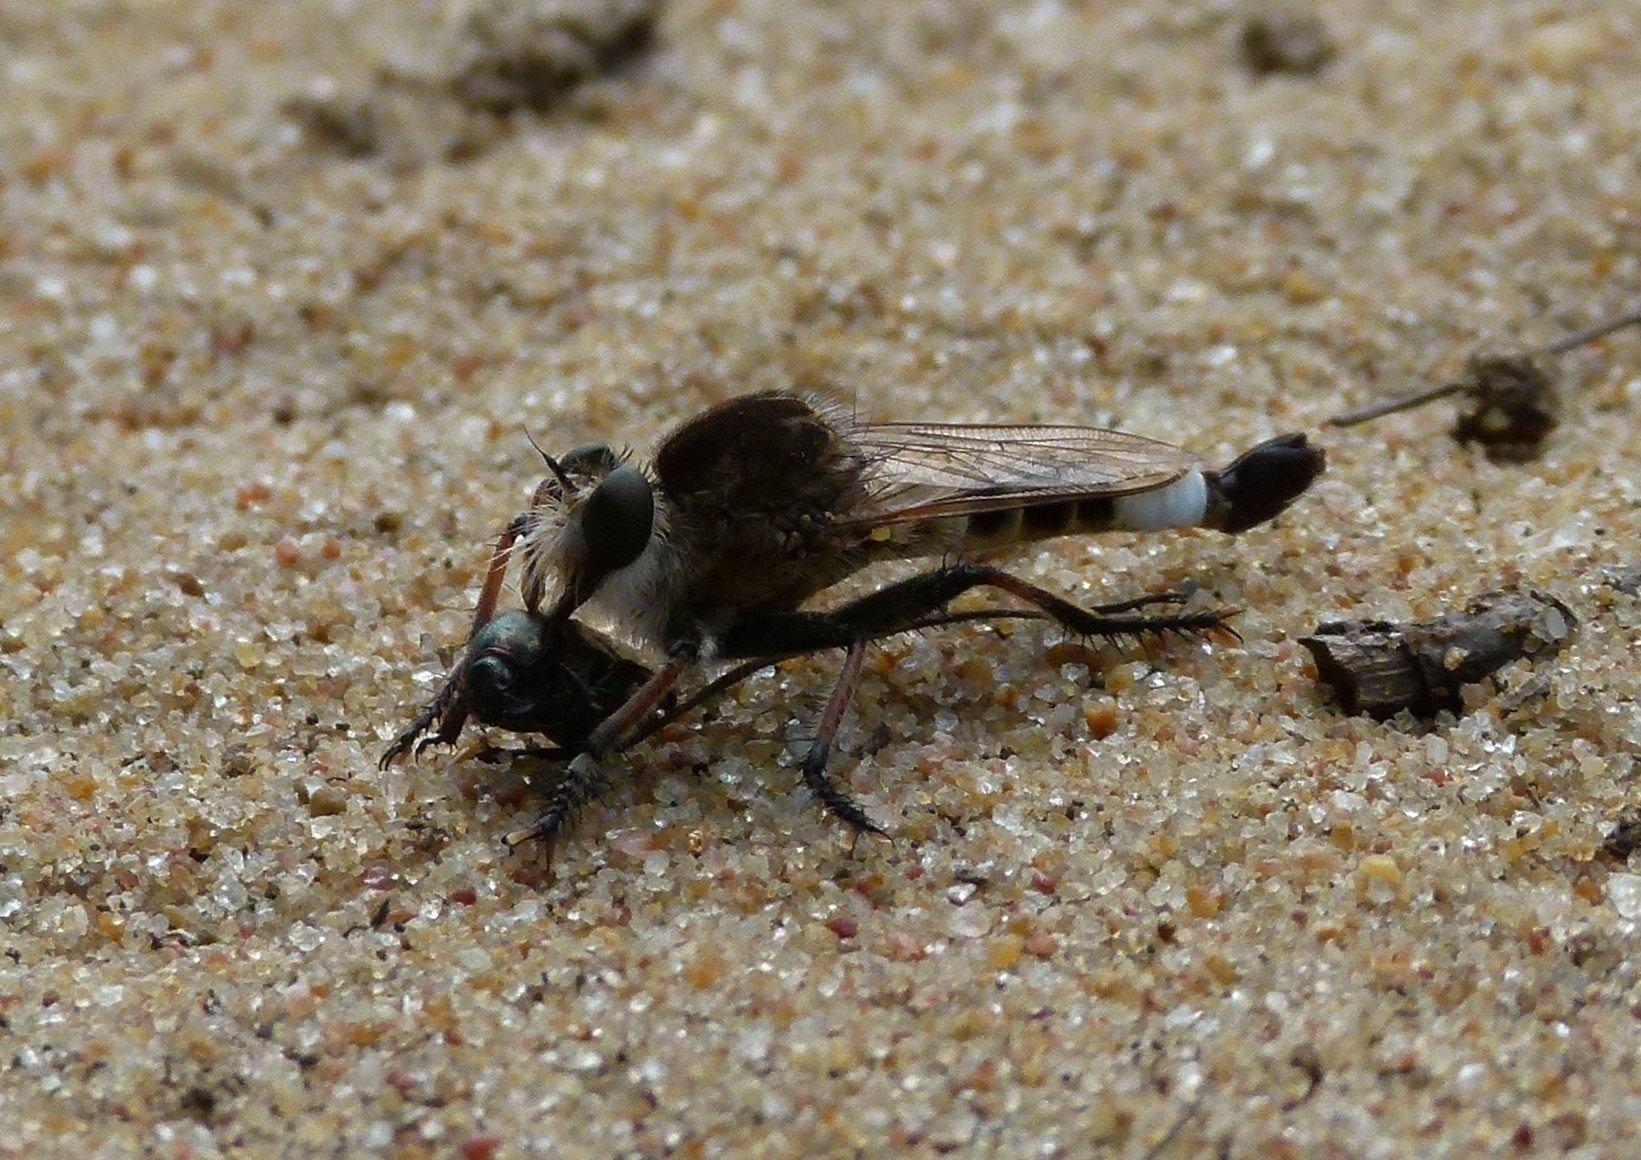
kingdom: Animalia
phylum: Arthropoda
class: Insecta
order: Diptera
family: Asilidae
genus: Efferia
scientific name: Efferia albibarbis
